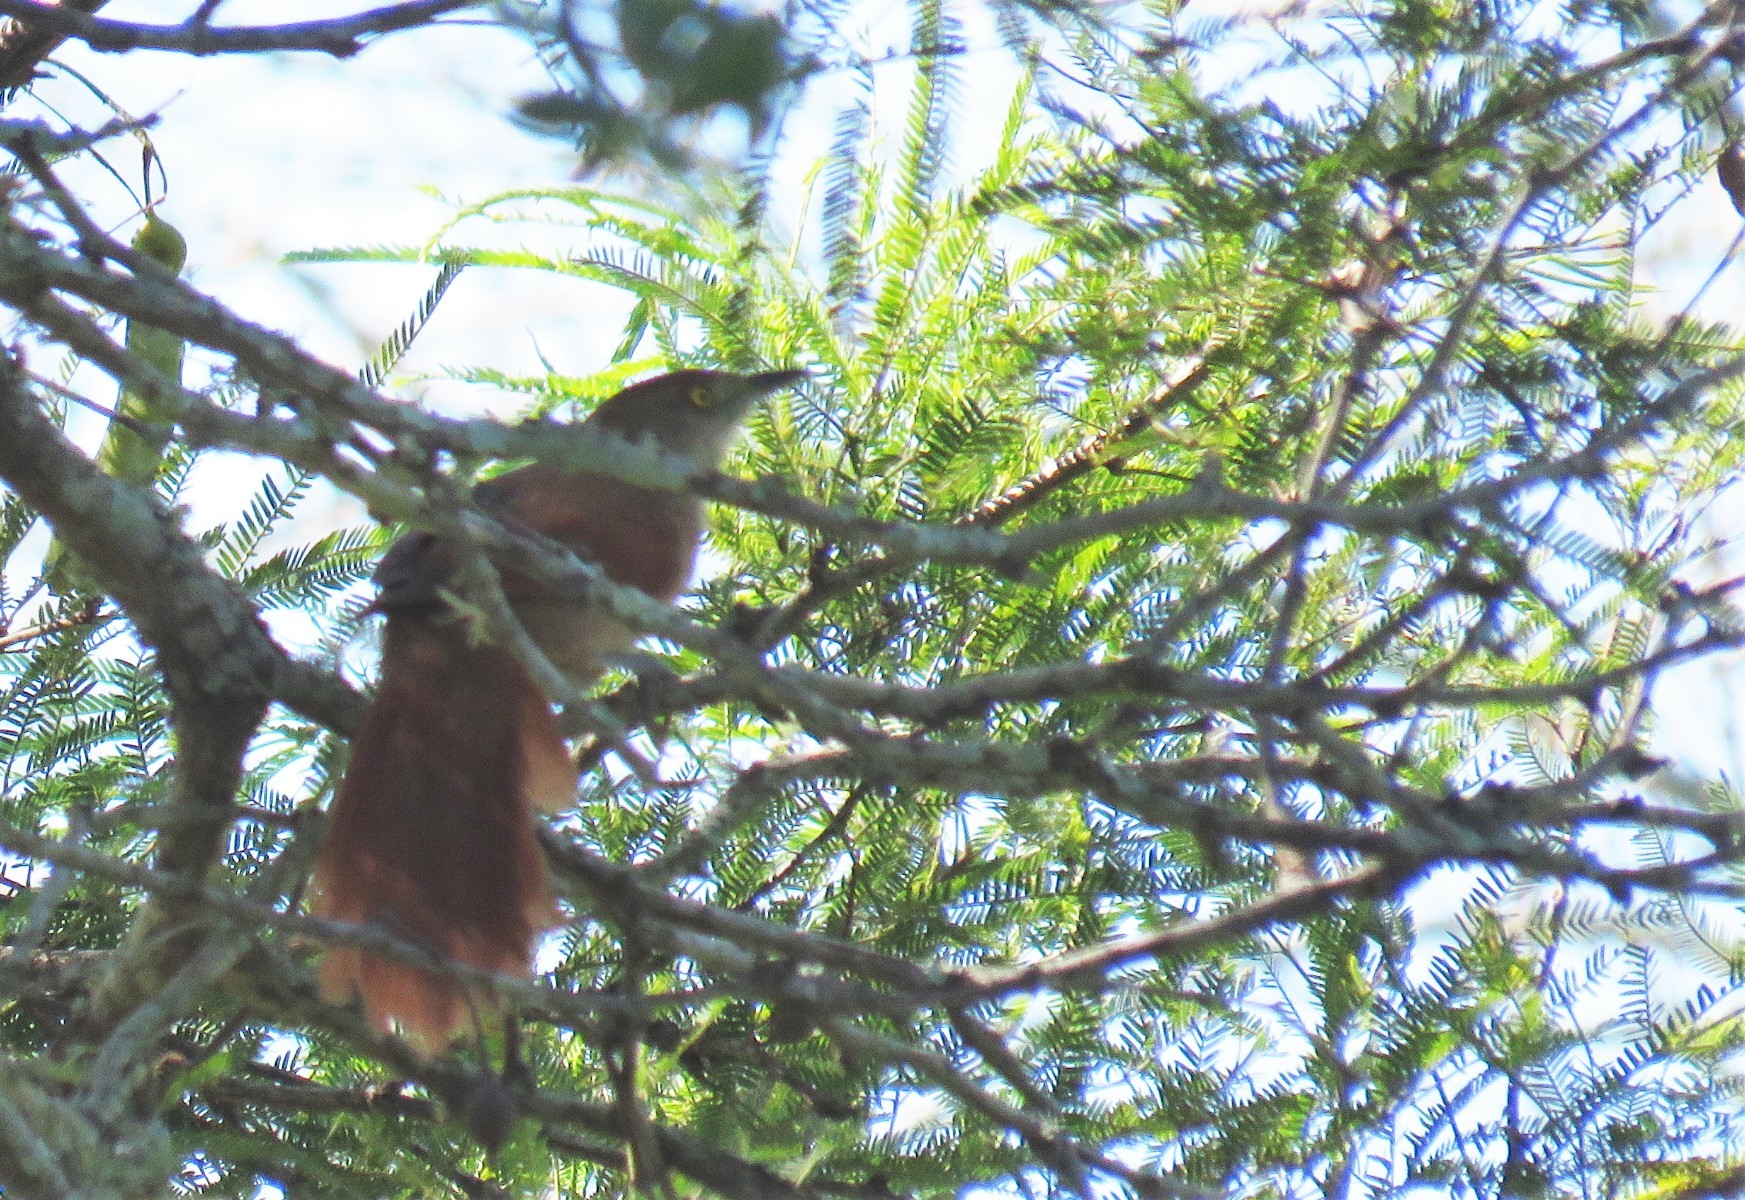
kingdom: Animalia
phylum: Chordata
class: Aves
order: Passeriformes
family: Furnariidae
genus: Phacellodomus
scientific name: Phacellodomus ruber
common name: Greater thornbird
